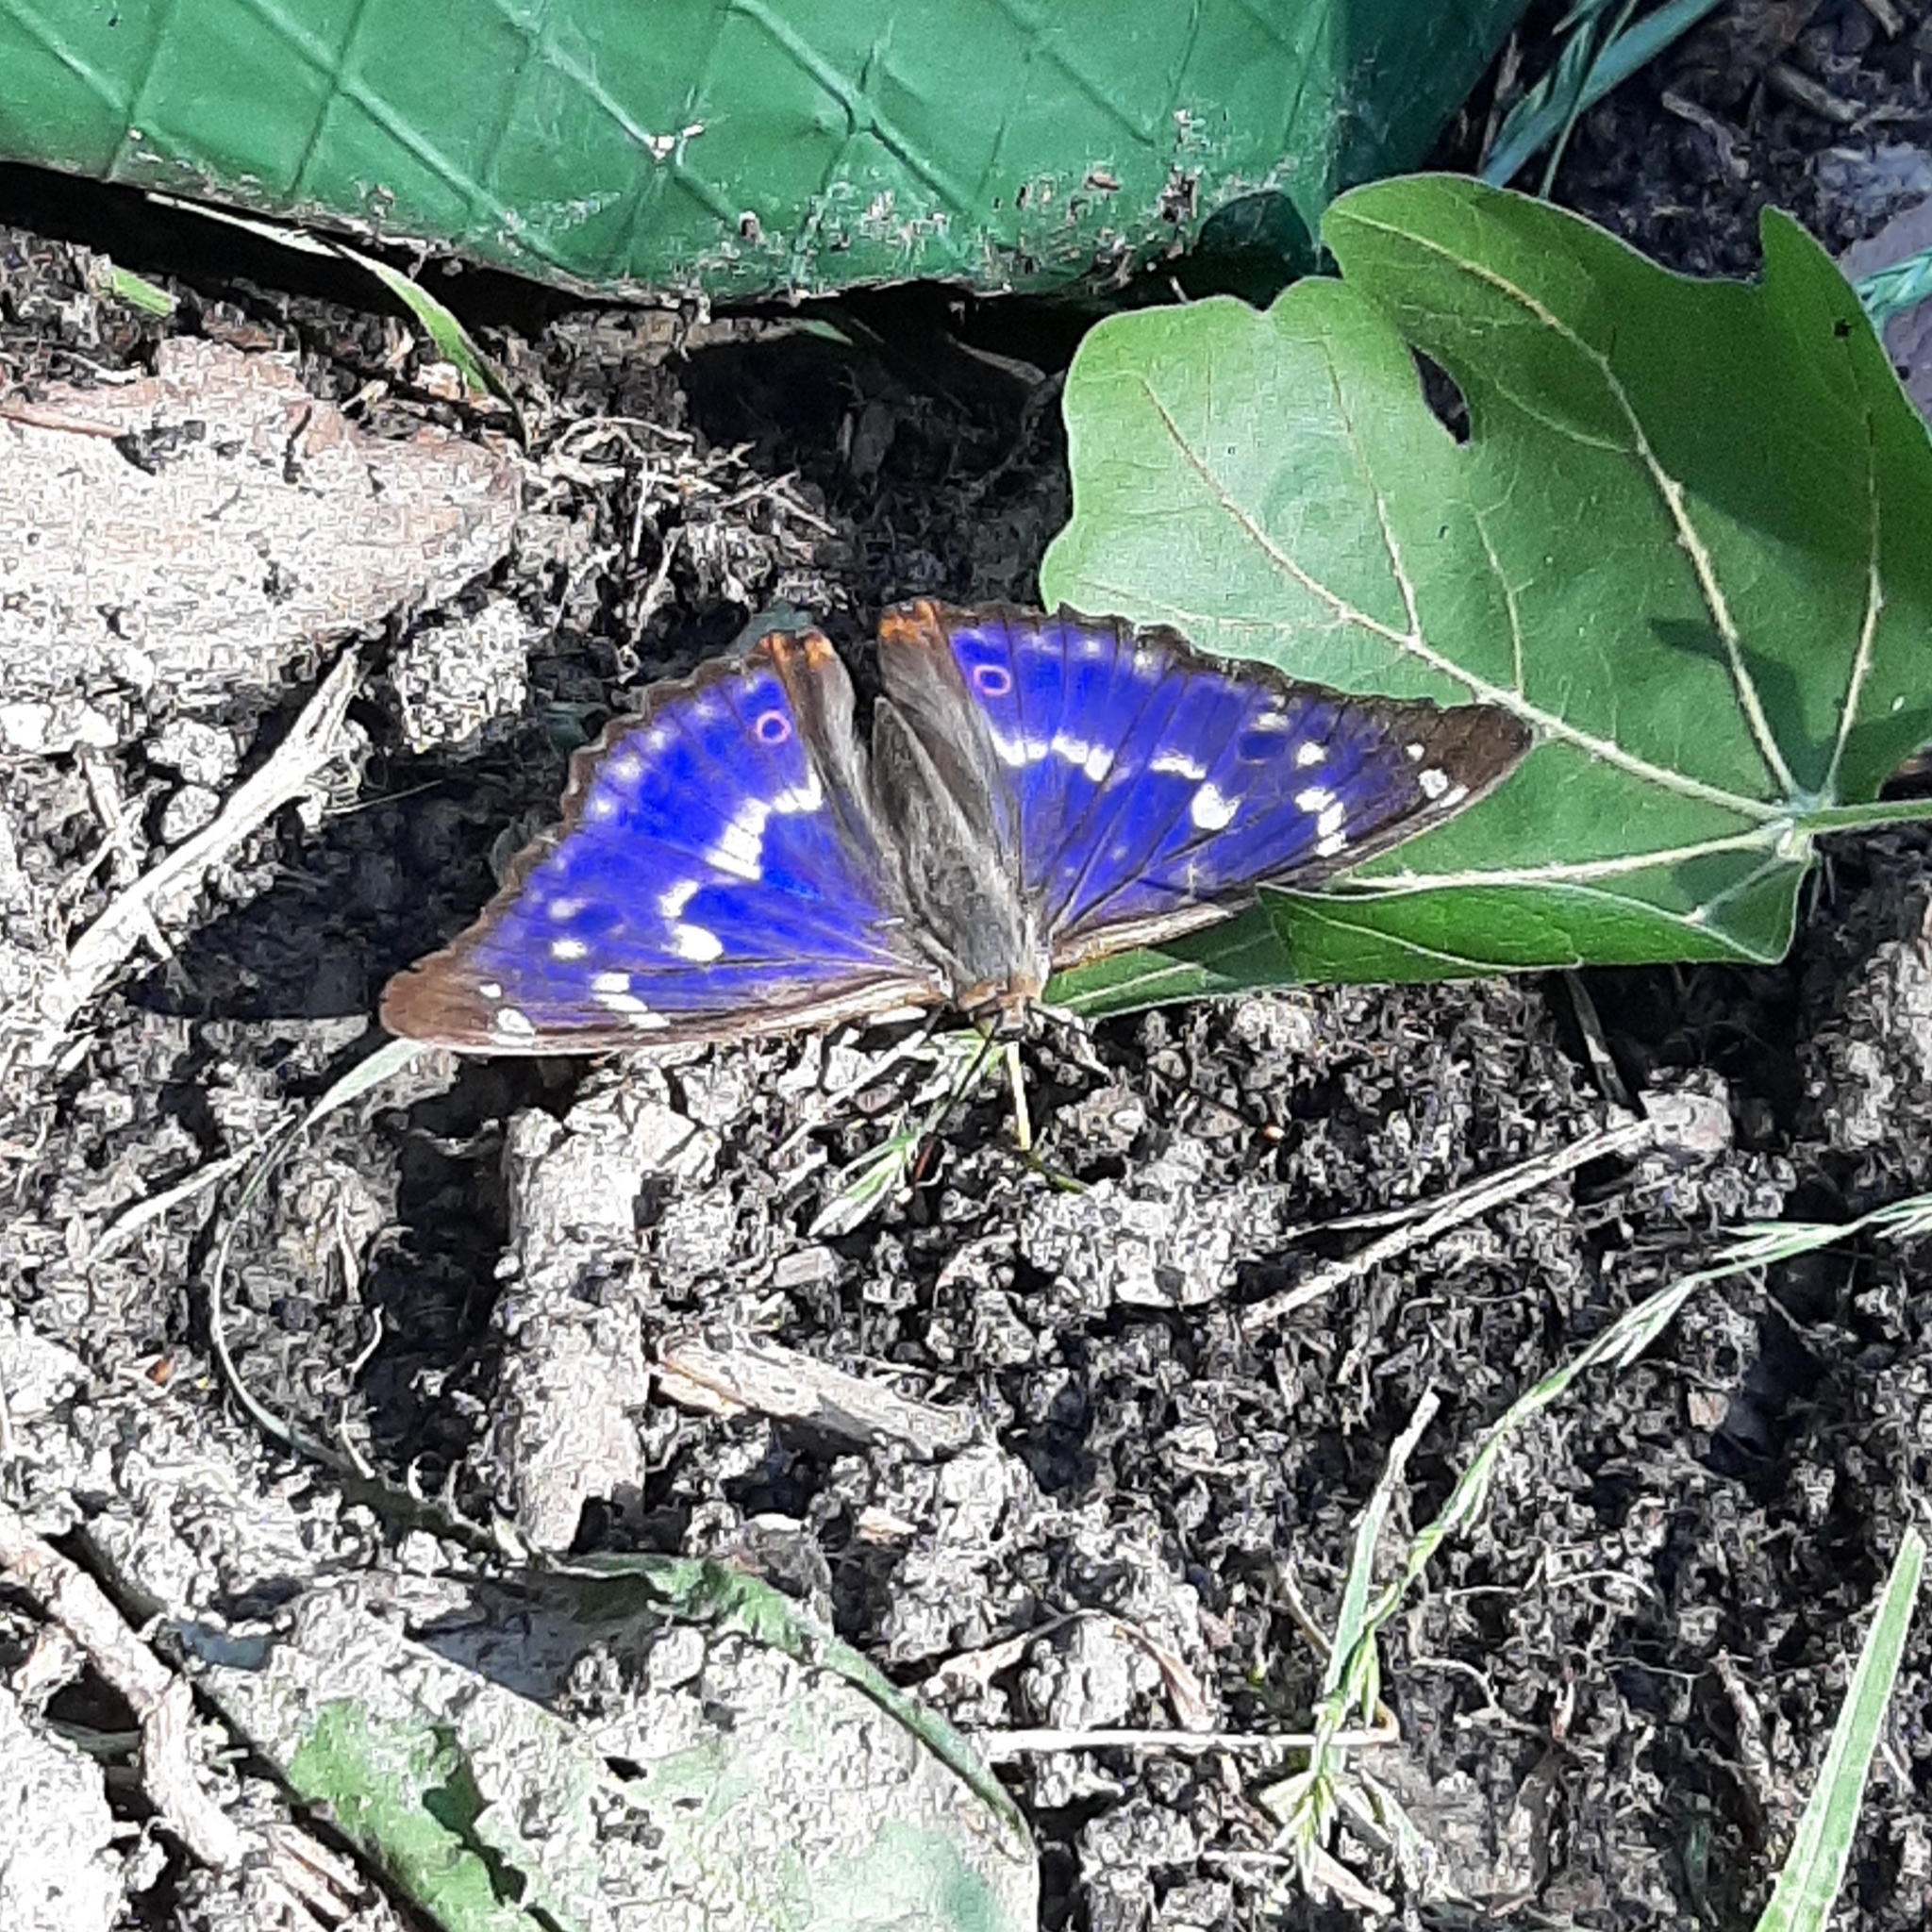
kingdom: Animalia
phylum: Arthropoda
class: Insecta
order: Lepidoptera
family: Nymphalidae
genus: Apatura
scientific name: Apatura ilia
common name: Lesser purple emperor
